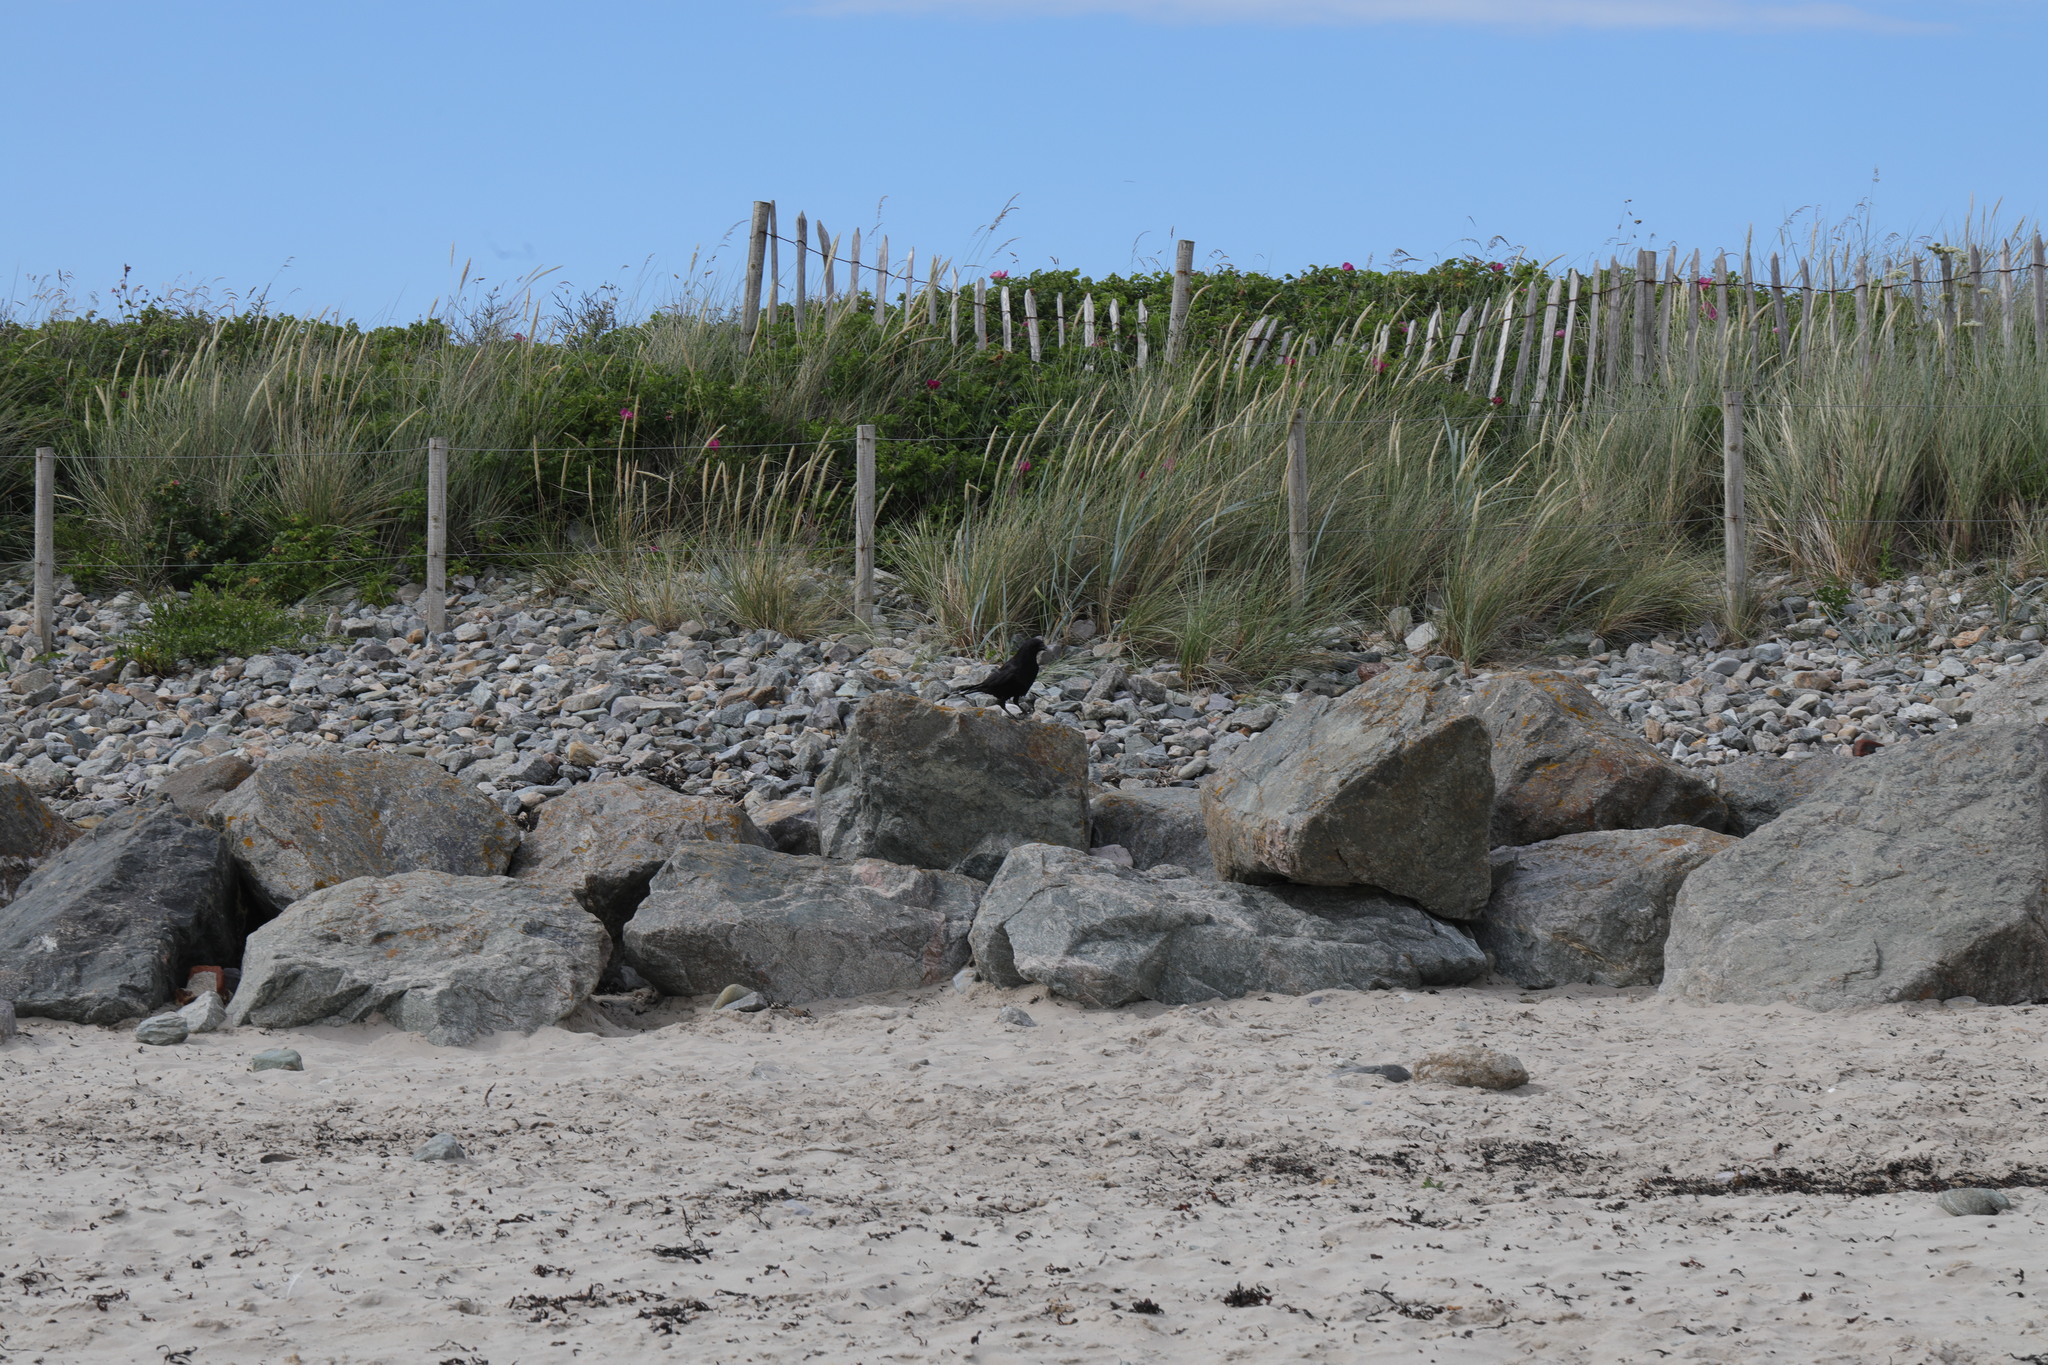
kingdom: Plantae
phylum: Tracheophyta
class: Liliopsida
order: Poales
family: Poaceae
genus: Calamagrostis
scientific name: Calamagrostis arenaria
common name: European beachgrass
